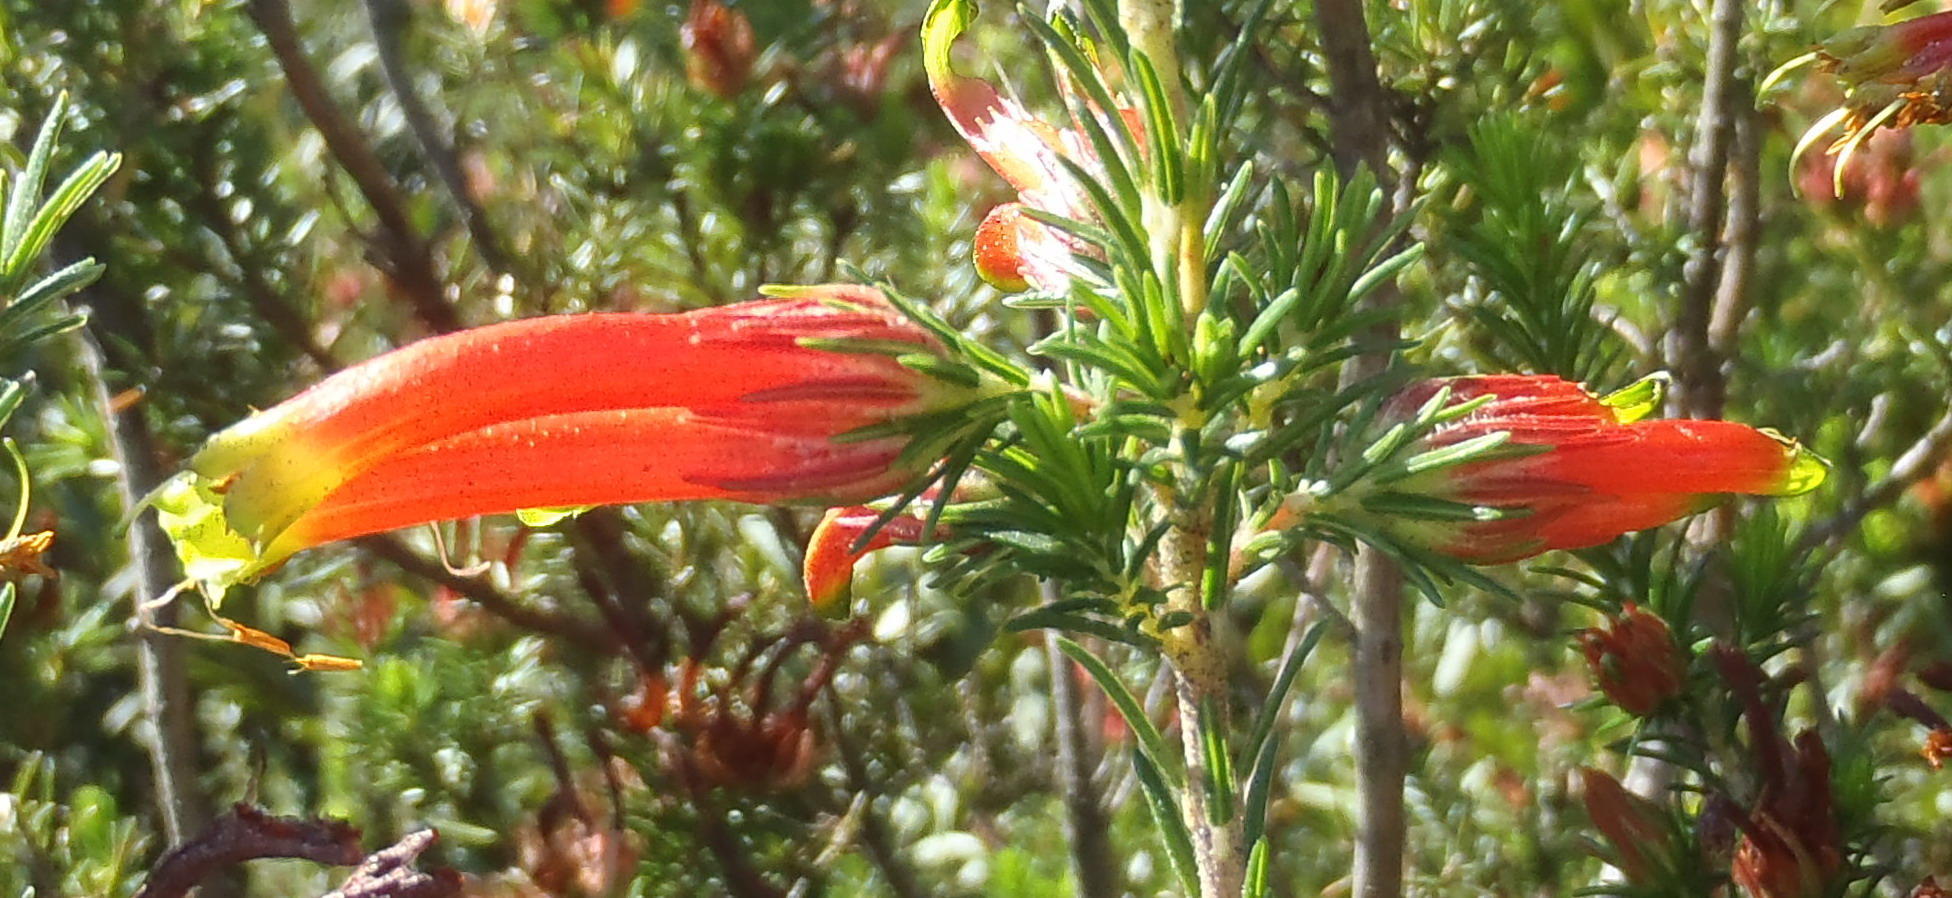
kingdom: Plantae
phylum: Tracheophyta
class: Magnoliopsida
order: Ericales
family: Ericaceae
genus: Erica
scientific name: Erica unicolor
